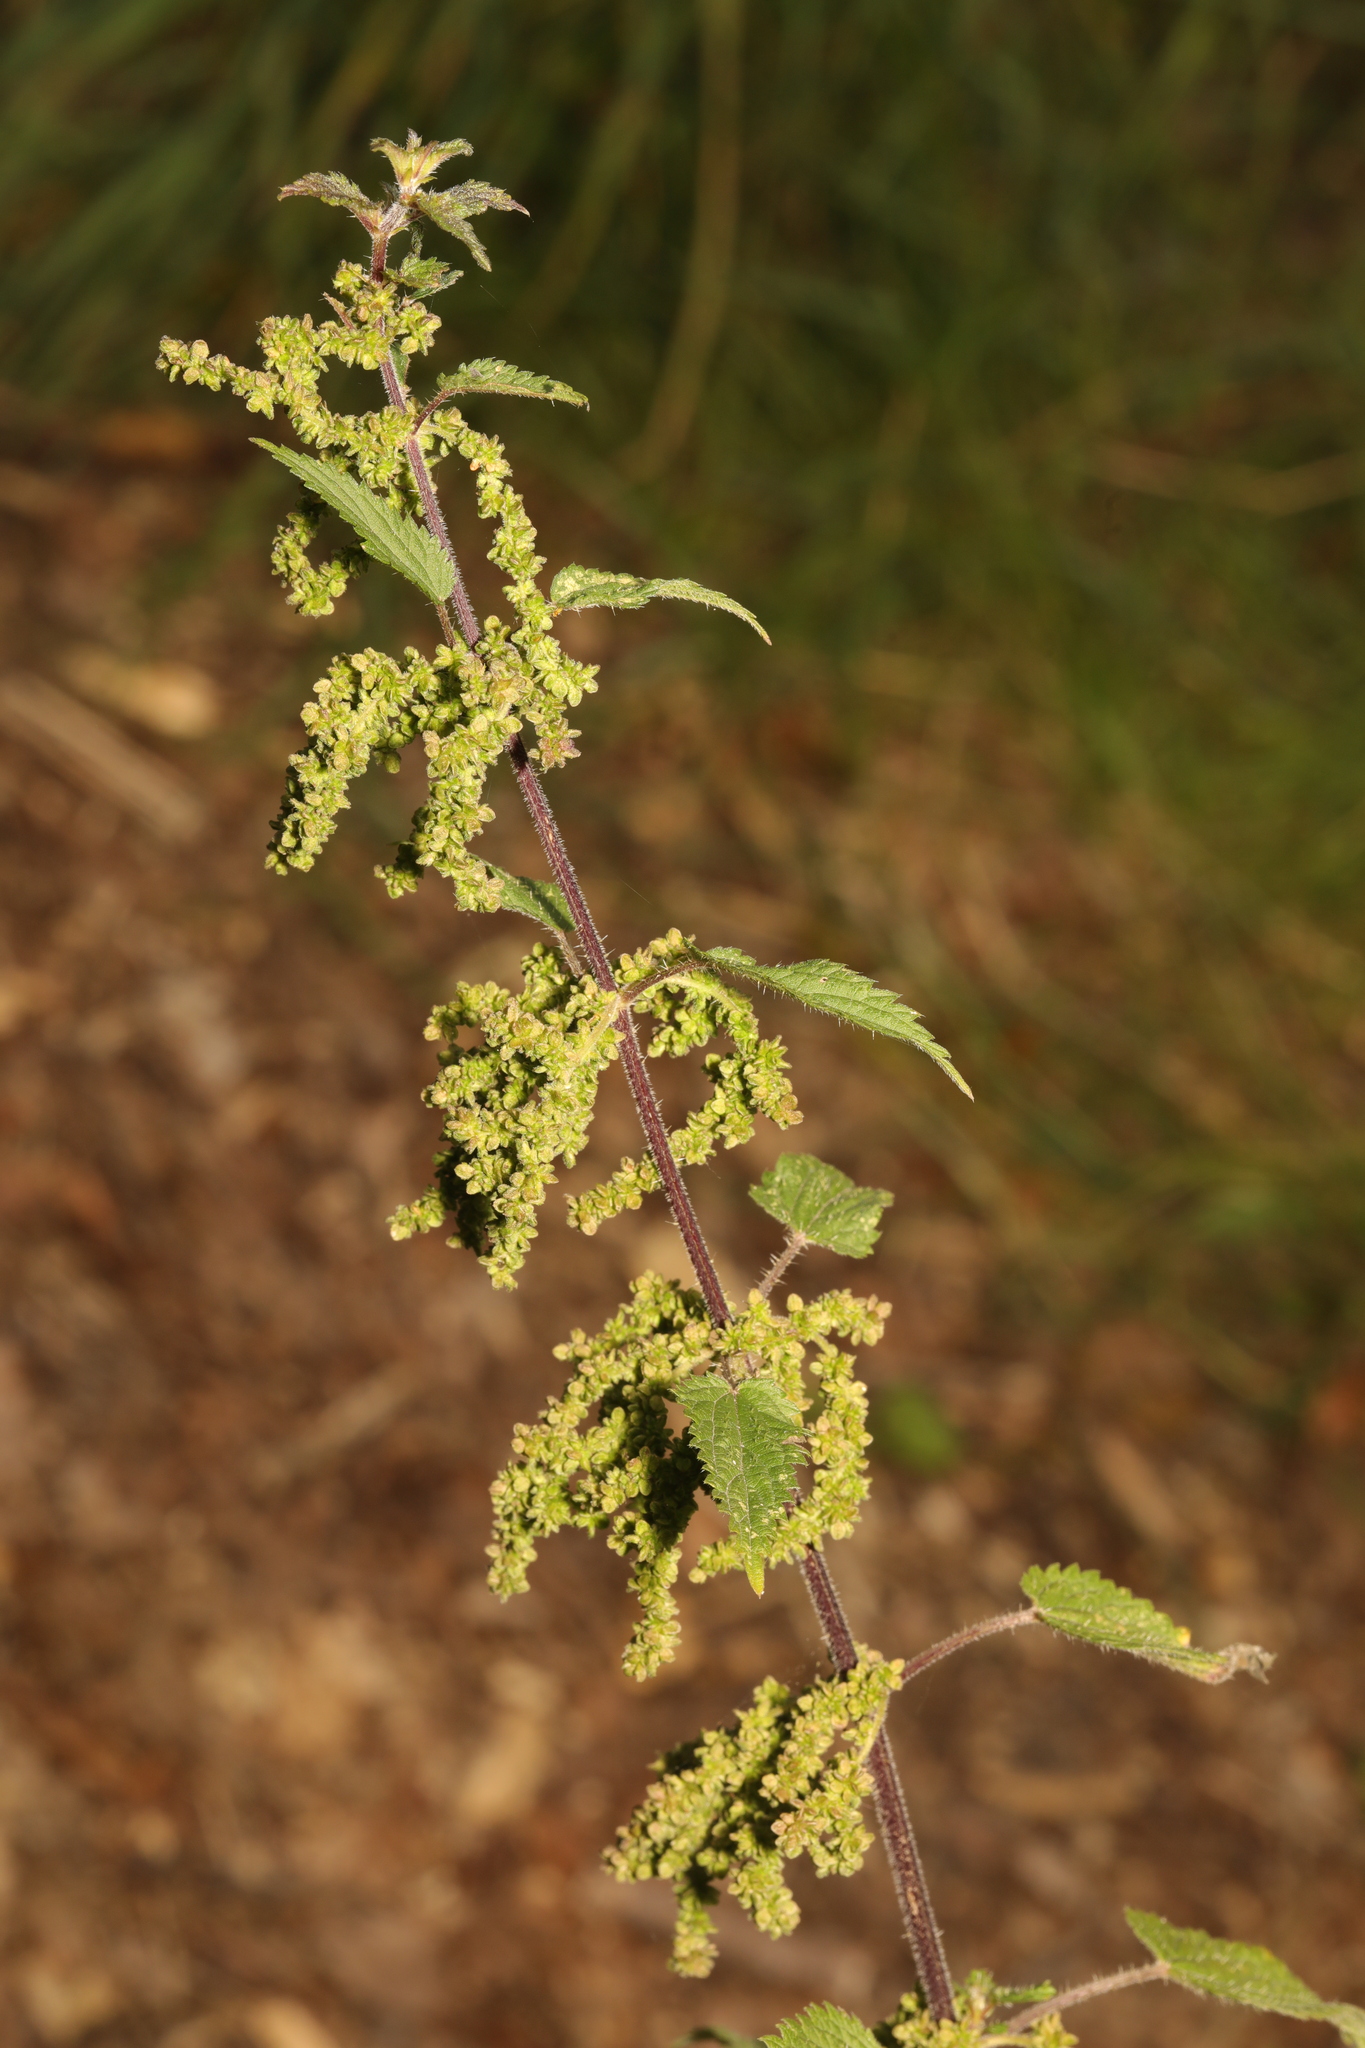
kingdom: Plantae
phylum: Tracheophyta
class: Magnoliopsida
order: Rosales
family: Urticaceae
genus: Urtica
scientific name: Urtica dioica
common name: Common nettle
